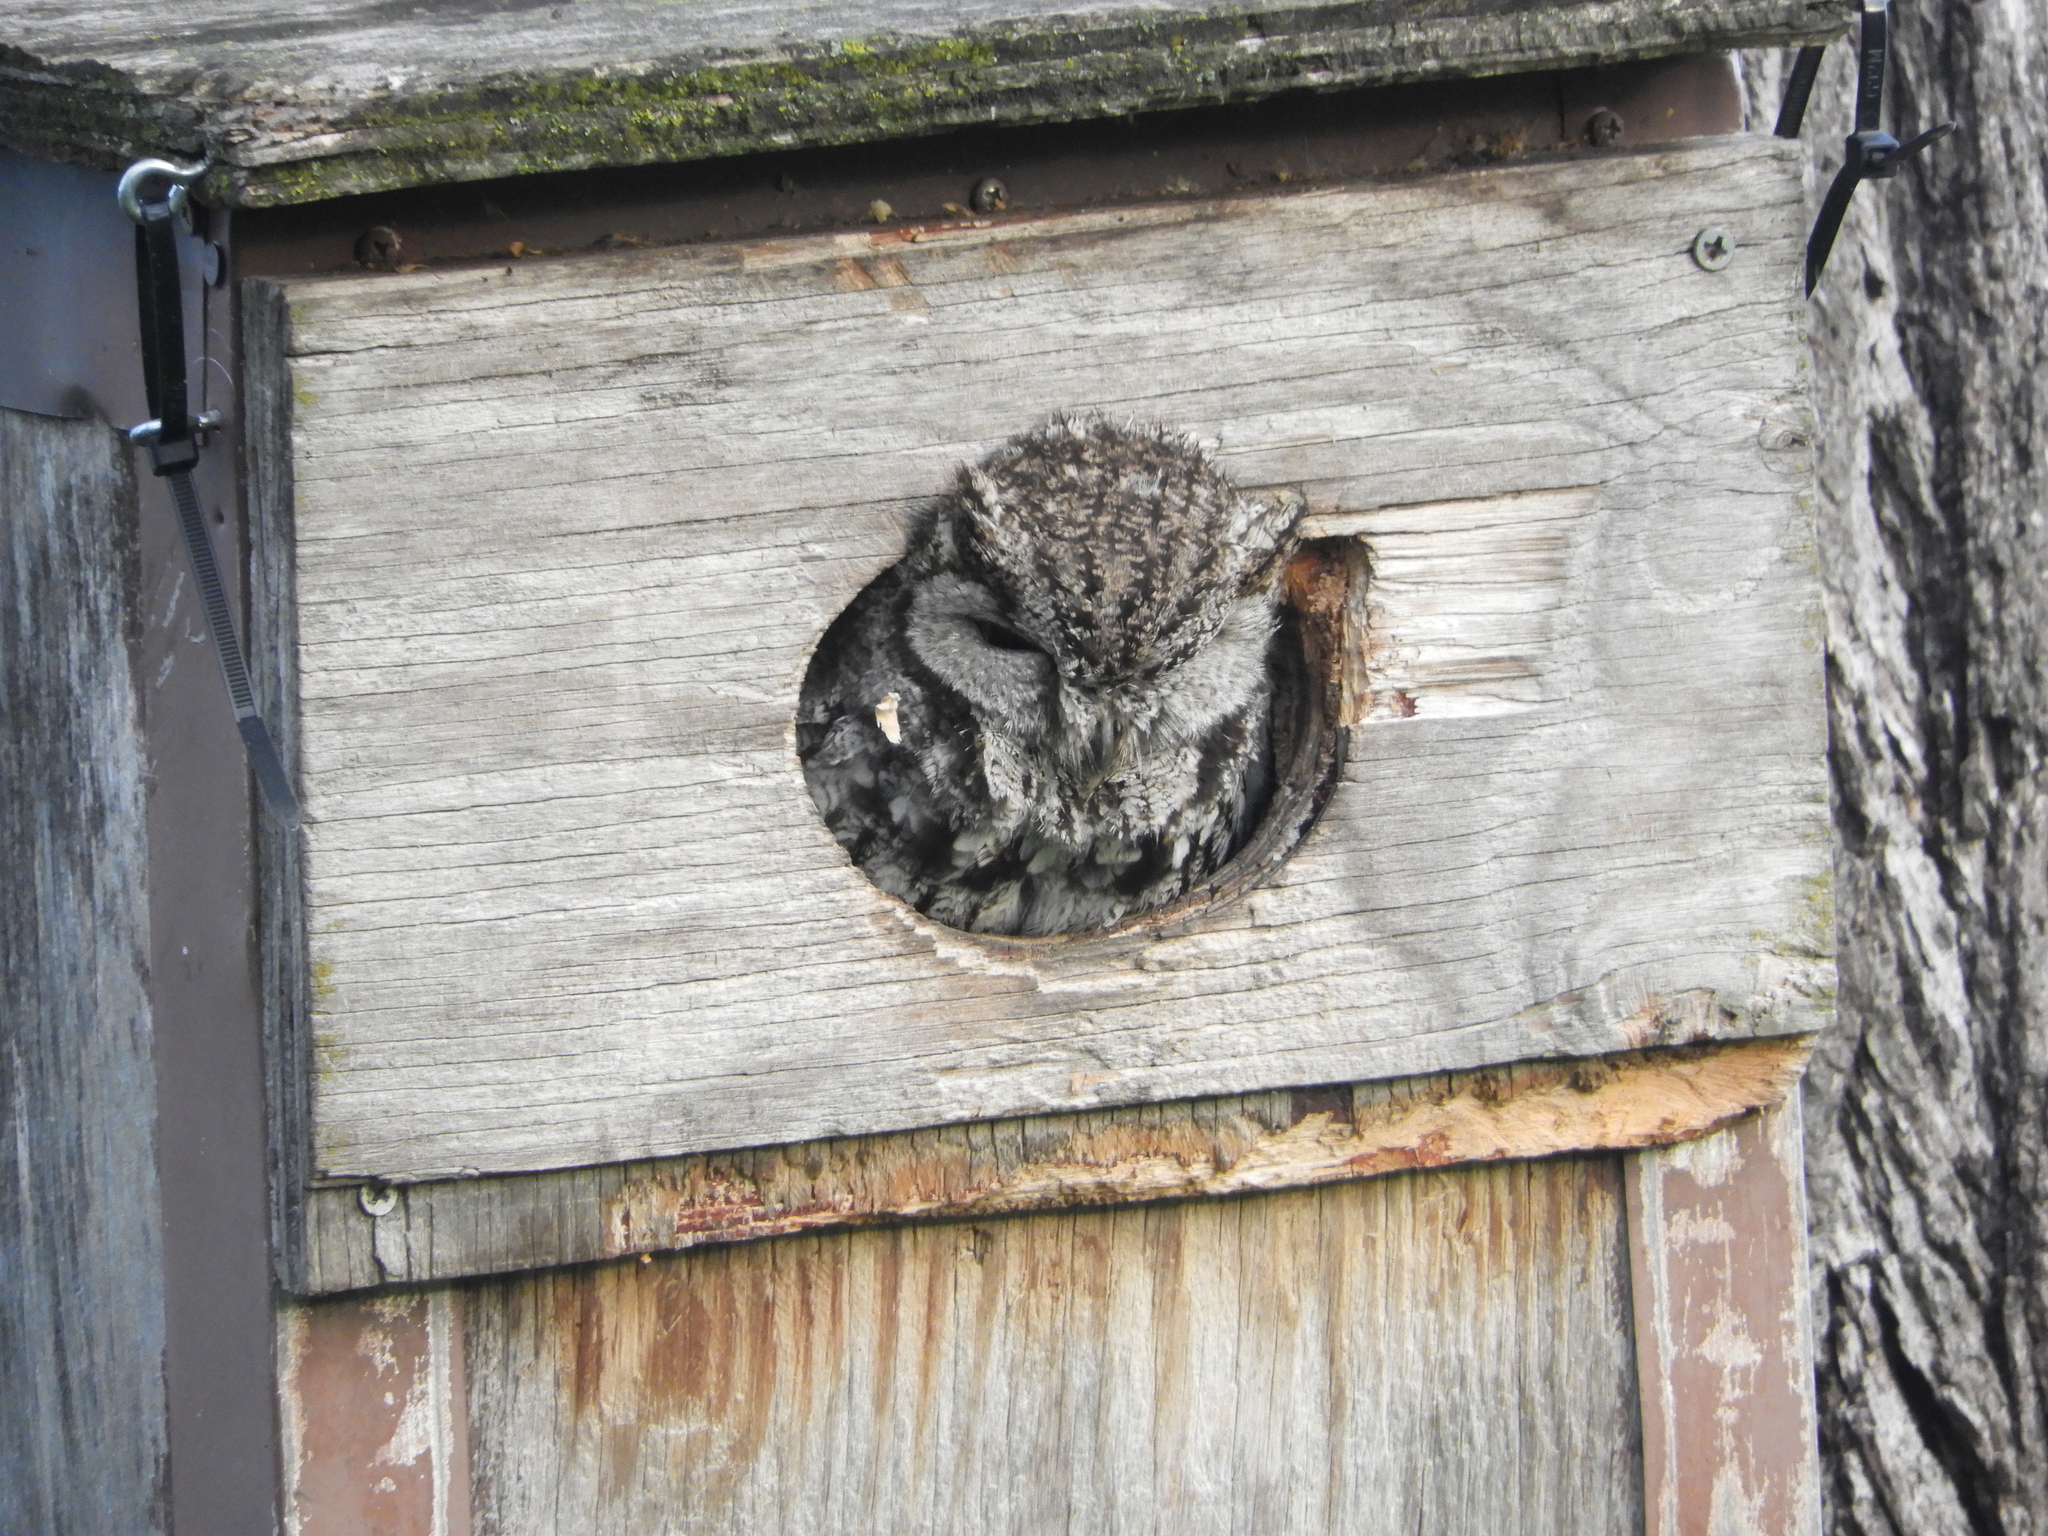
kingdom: Animalia
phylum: Chordata
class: Aves
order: Strigiformes
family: Strigidae
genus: Megascops
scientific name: Megascops kennicottii
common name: Western screech-owl
